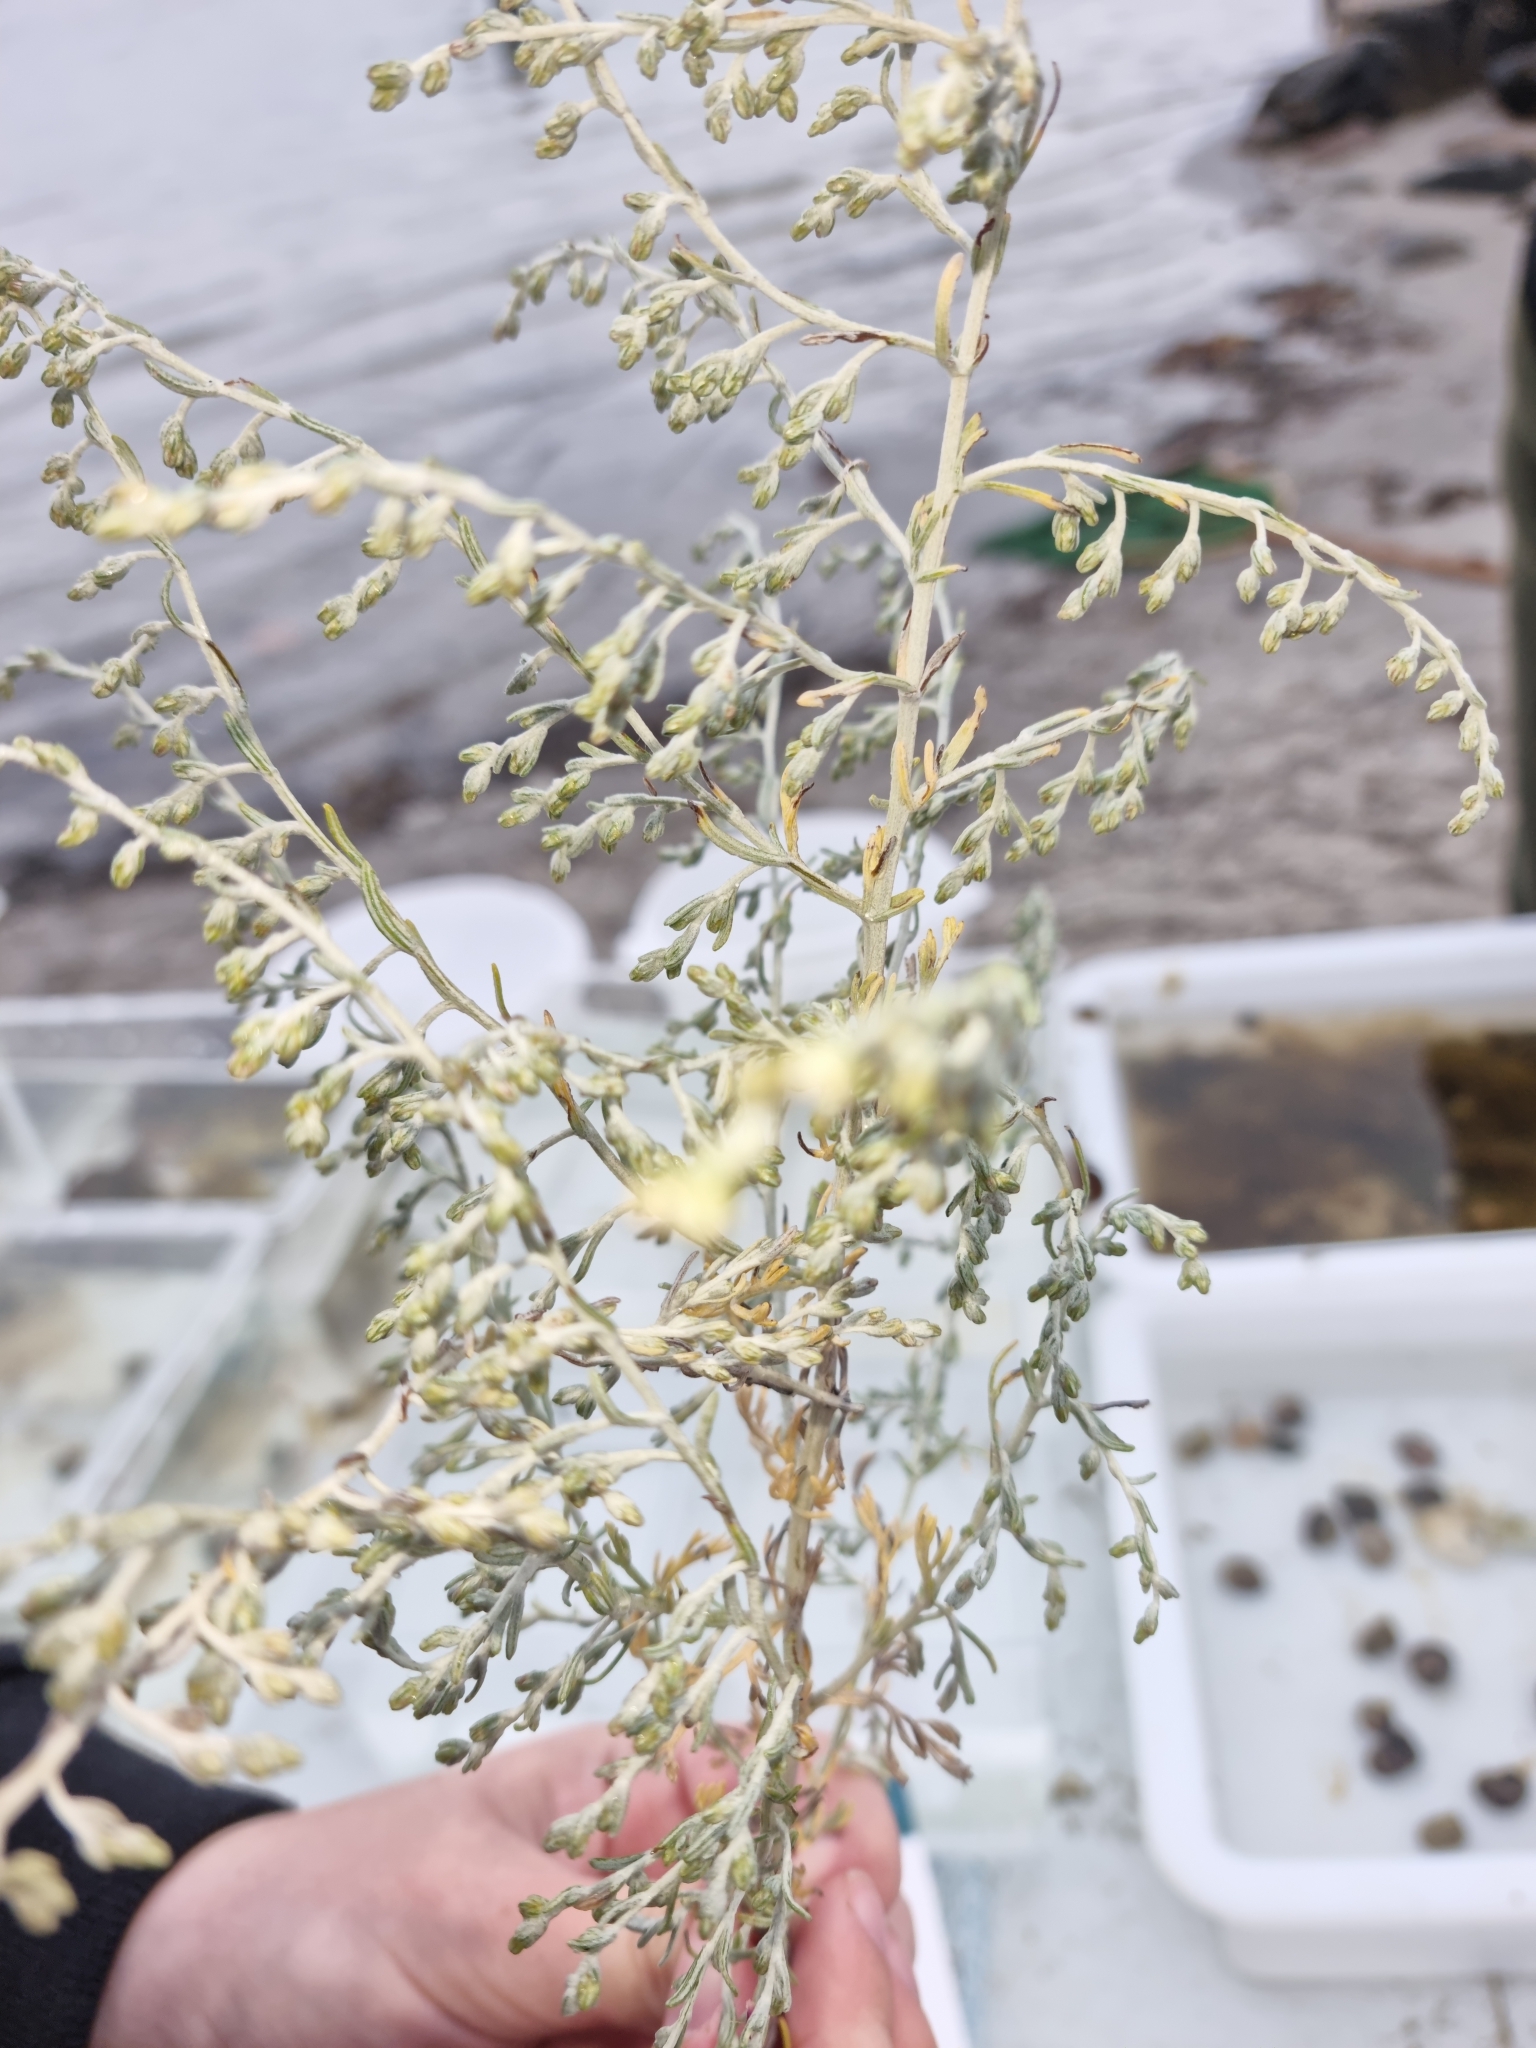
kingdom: Plantae
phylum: Tracheophyta
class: Magnoliopsida
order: Asterales
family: Asteraceae
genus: Artemisia
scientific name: Artemisia maritima
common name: Wormseed
